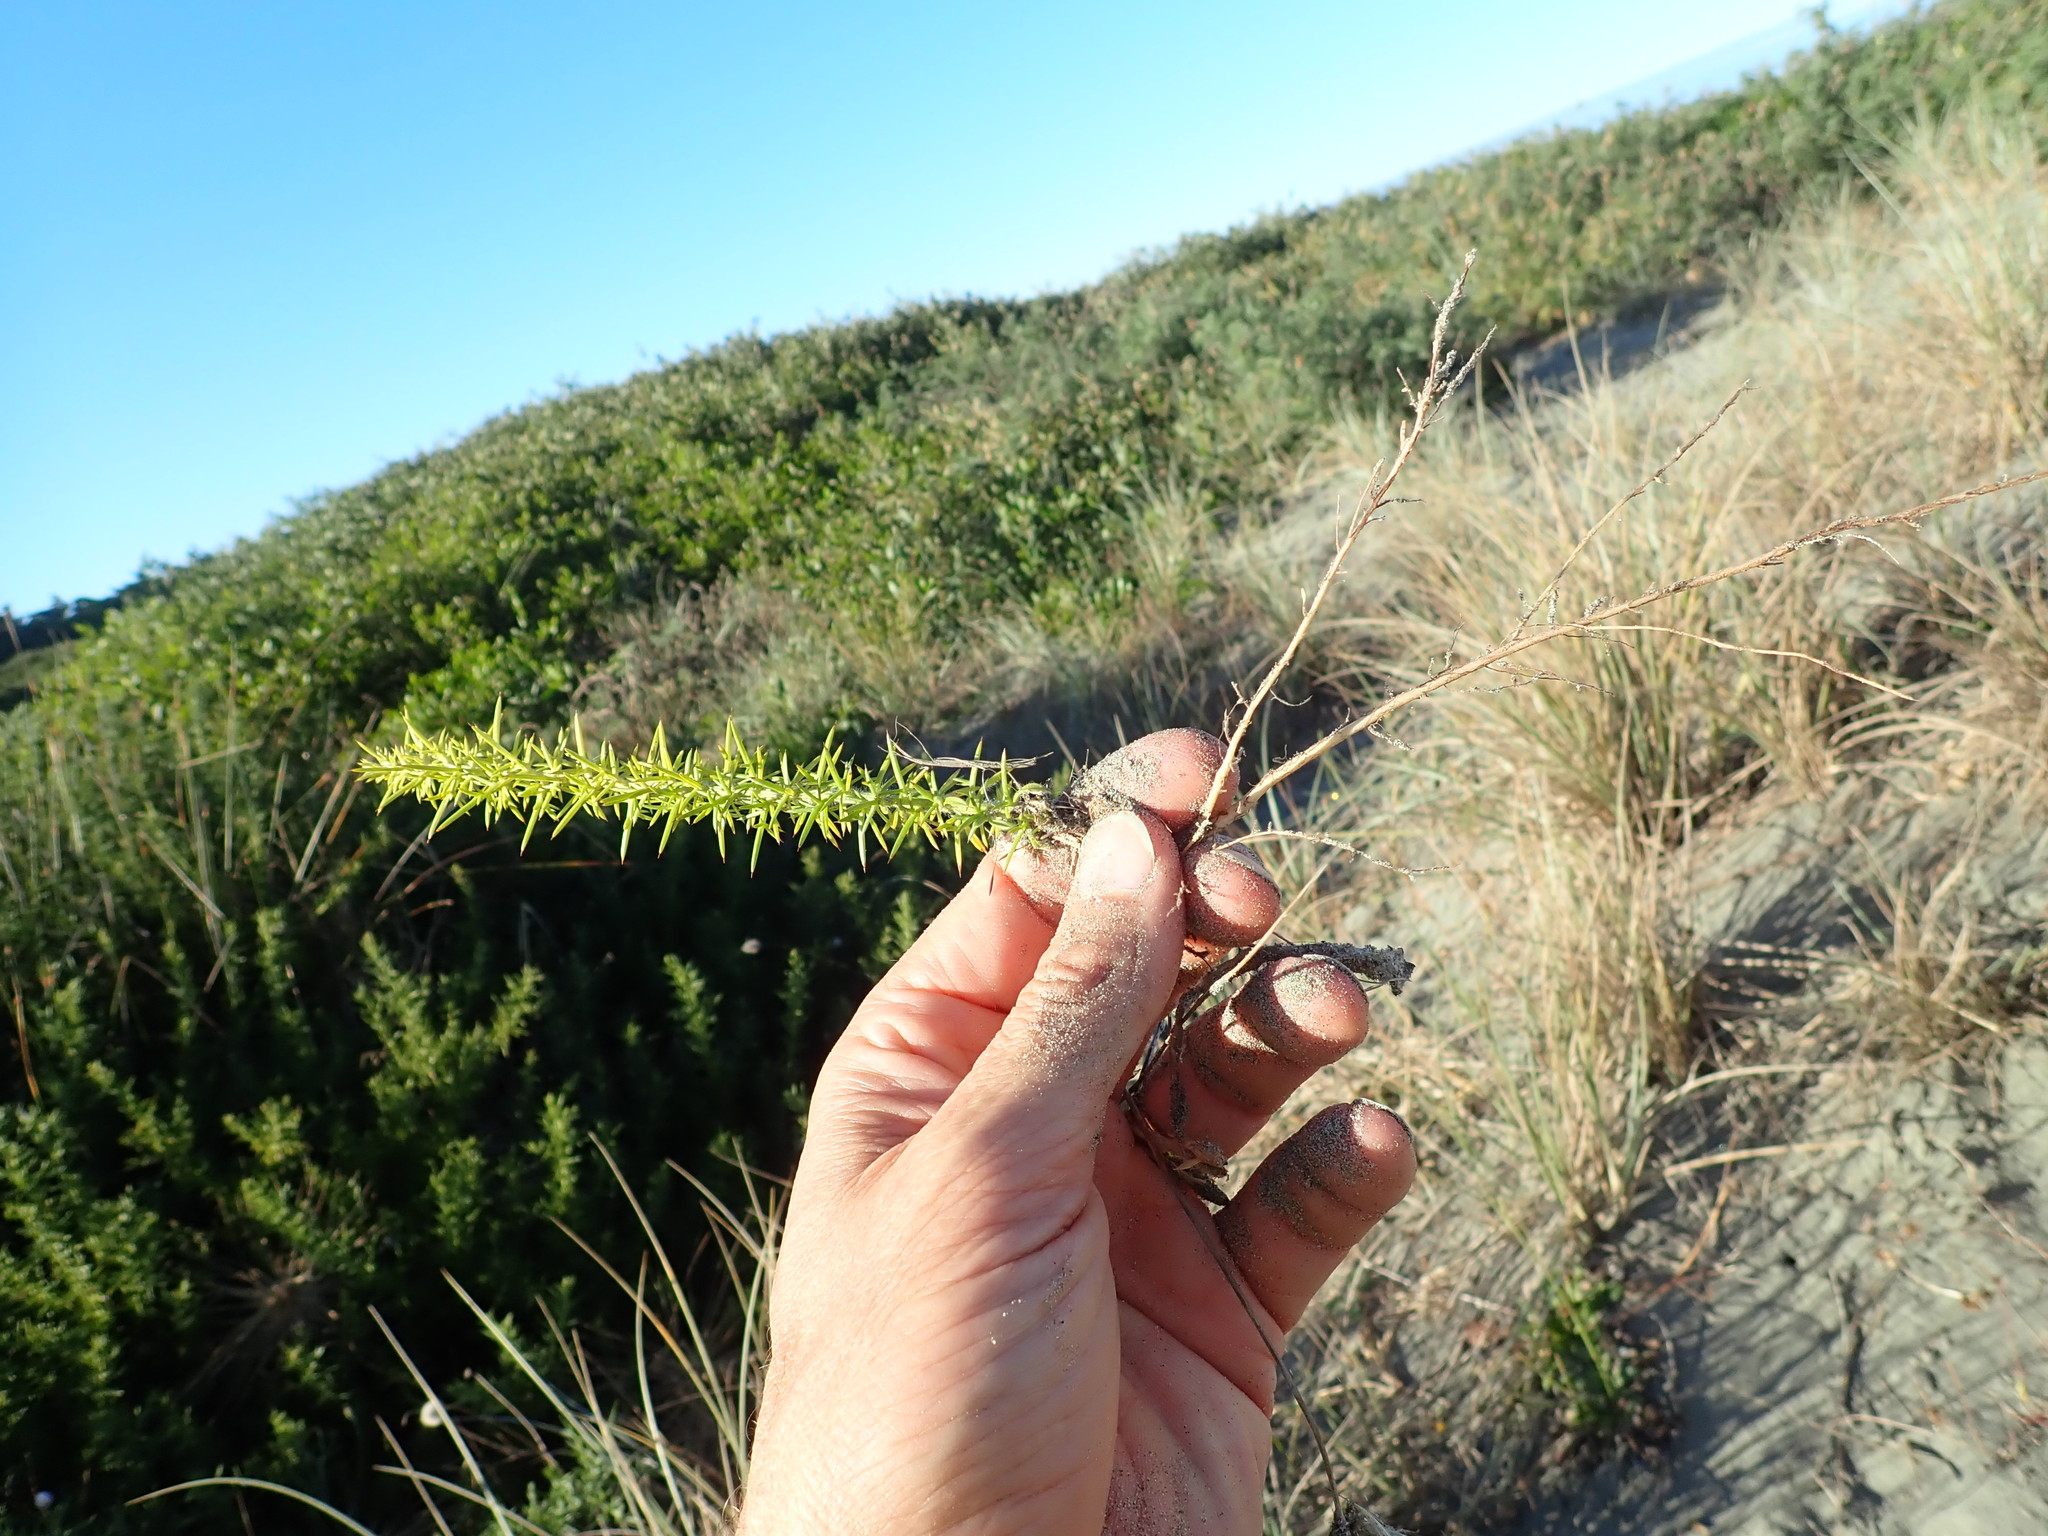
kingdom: Plantae
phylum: Tracheophyta
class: Magnoliopsida
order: Fabales
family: Fabaceae
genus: Ulex
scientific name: Ulex europaeus
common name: Common gorse
